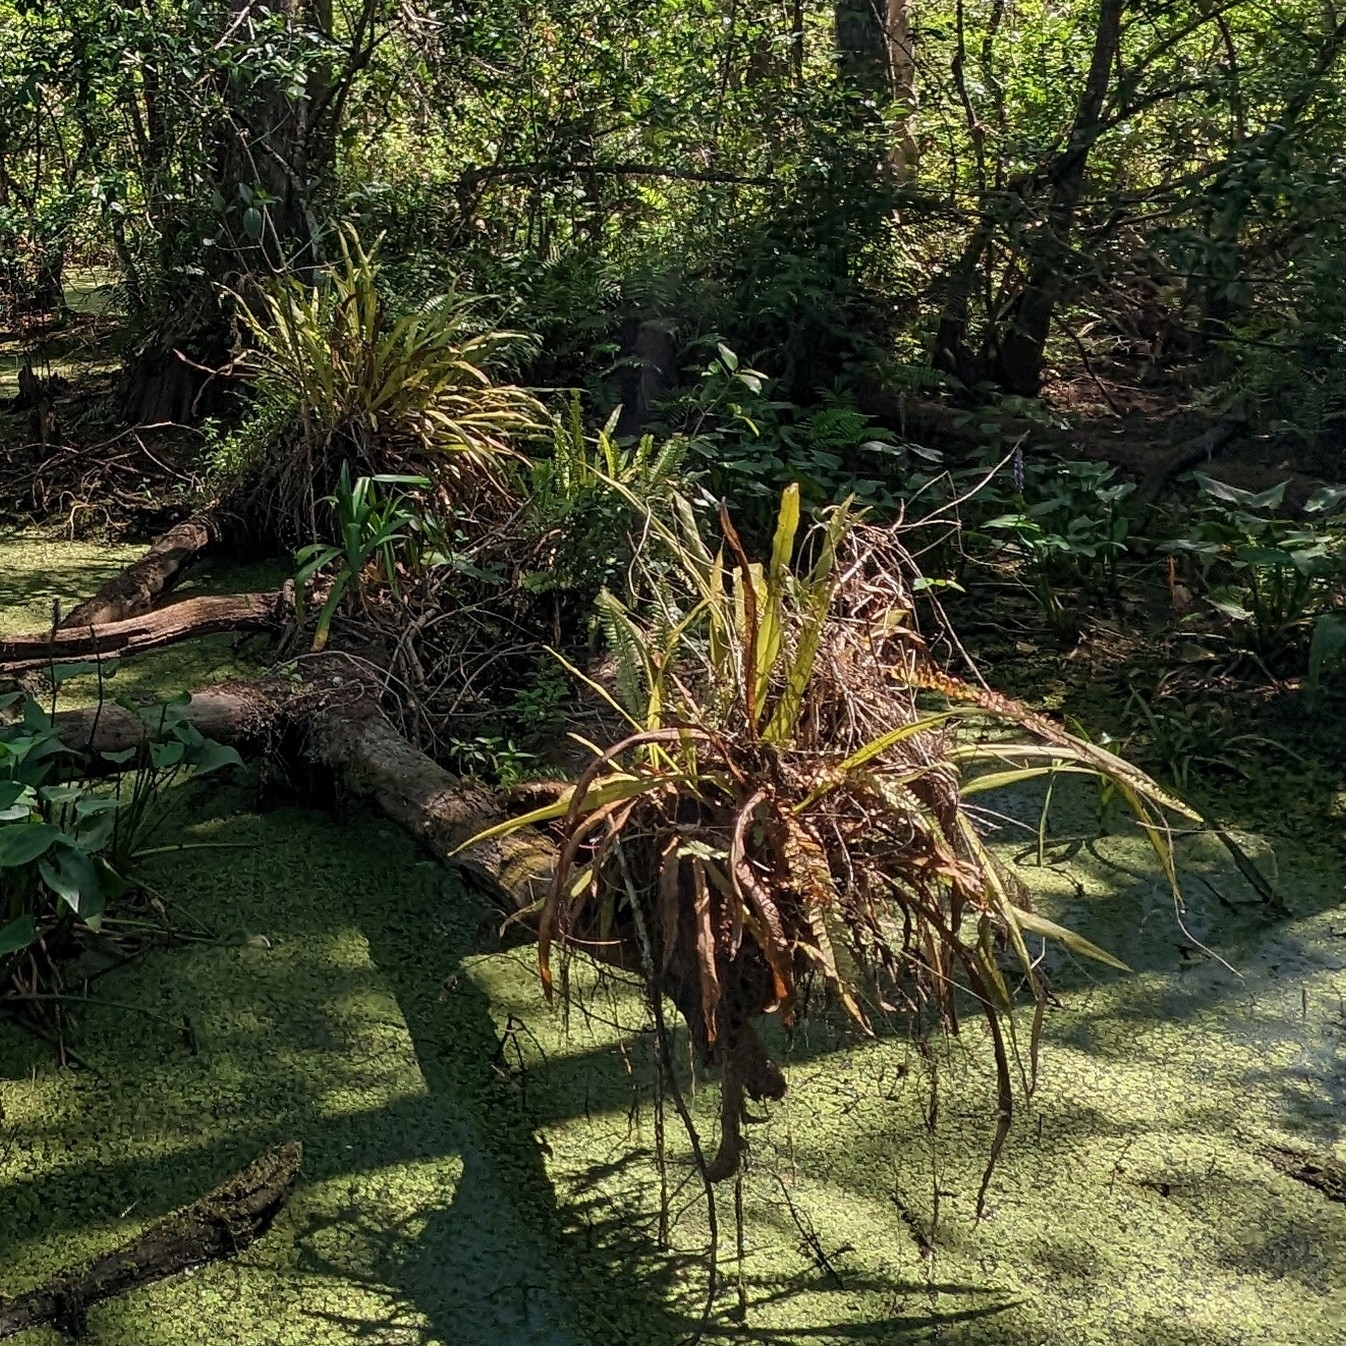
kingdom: Plantae
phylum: Tracheophyta
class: Polypodiopsida
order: Polypodiales
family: Polypodiaceae
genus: Campyloneurum
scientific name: Campyloneurum phyllitidis
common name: Cow-tongue fern
